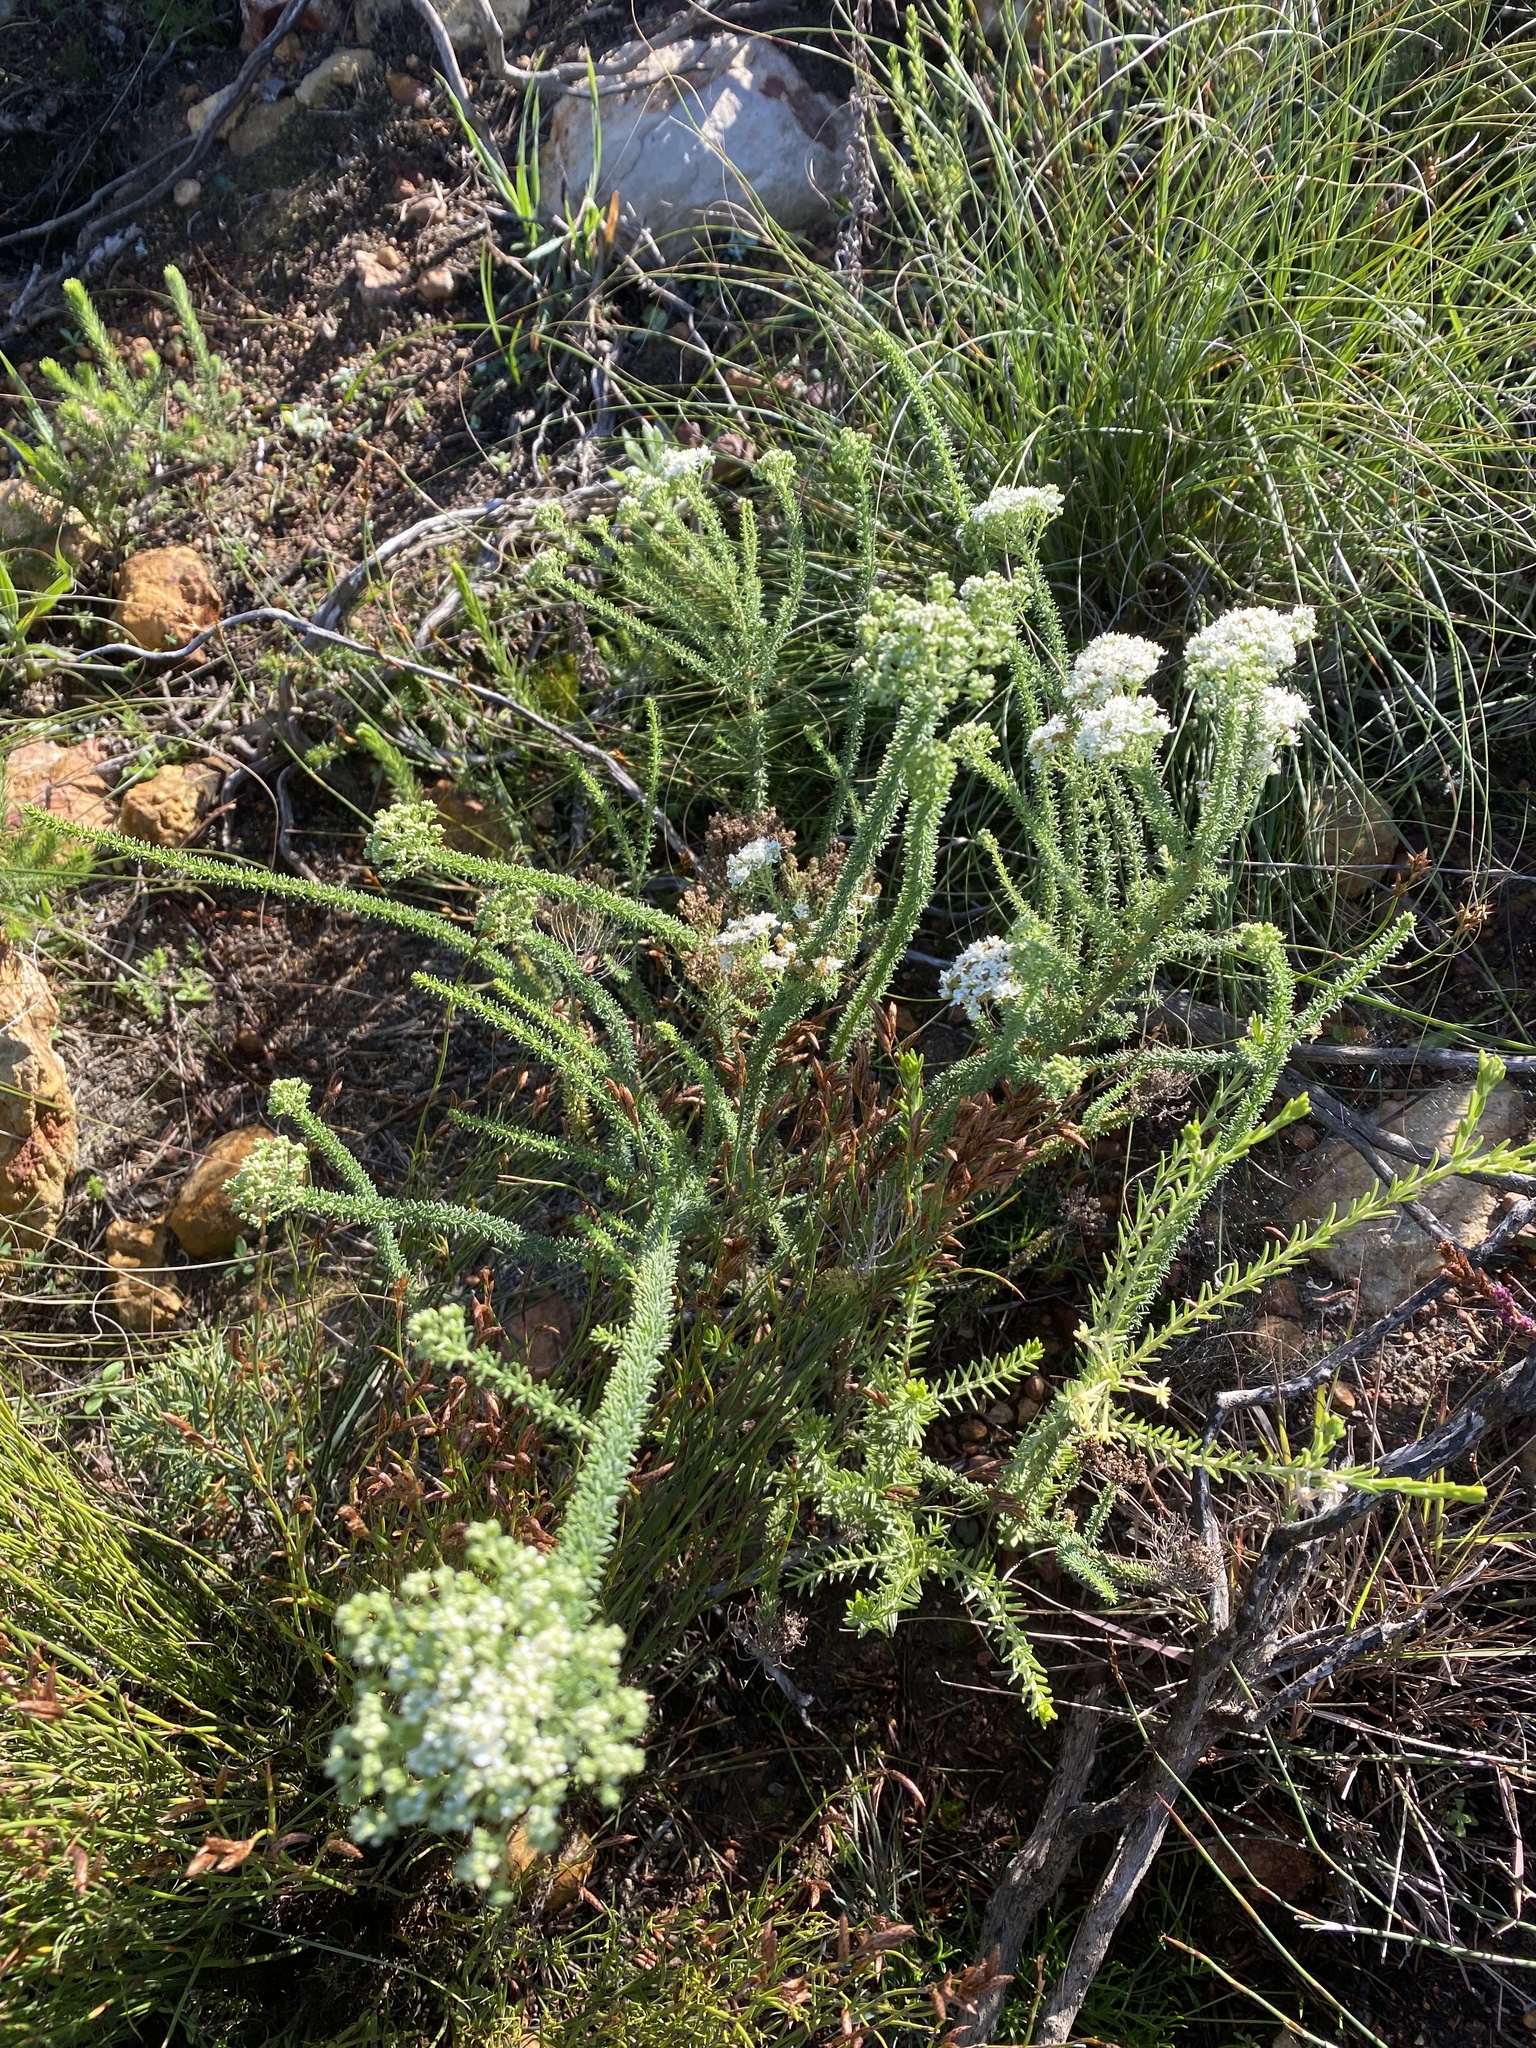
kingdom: Plantae
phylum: Tracheophyta
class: Magnoliopsida
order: Lamiales
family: Scrophulariaceae
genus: Selago
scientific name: Selago dolosa
